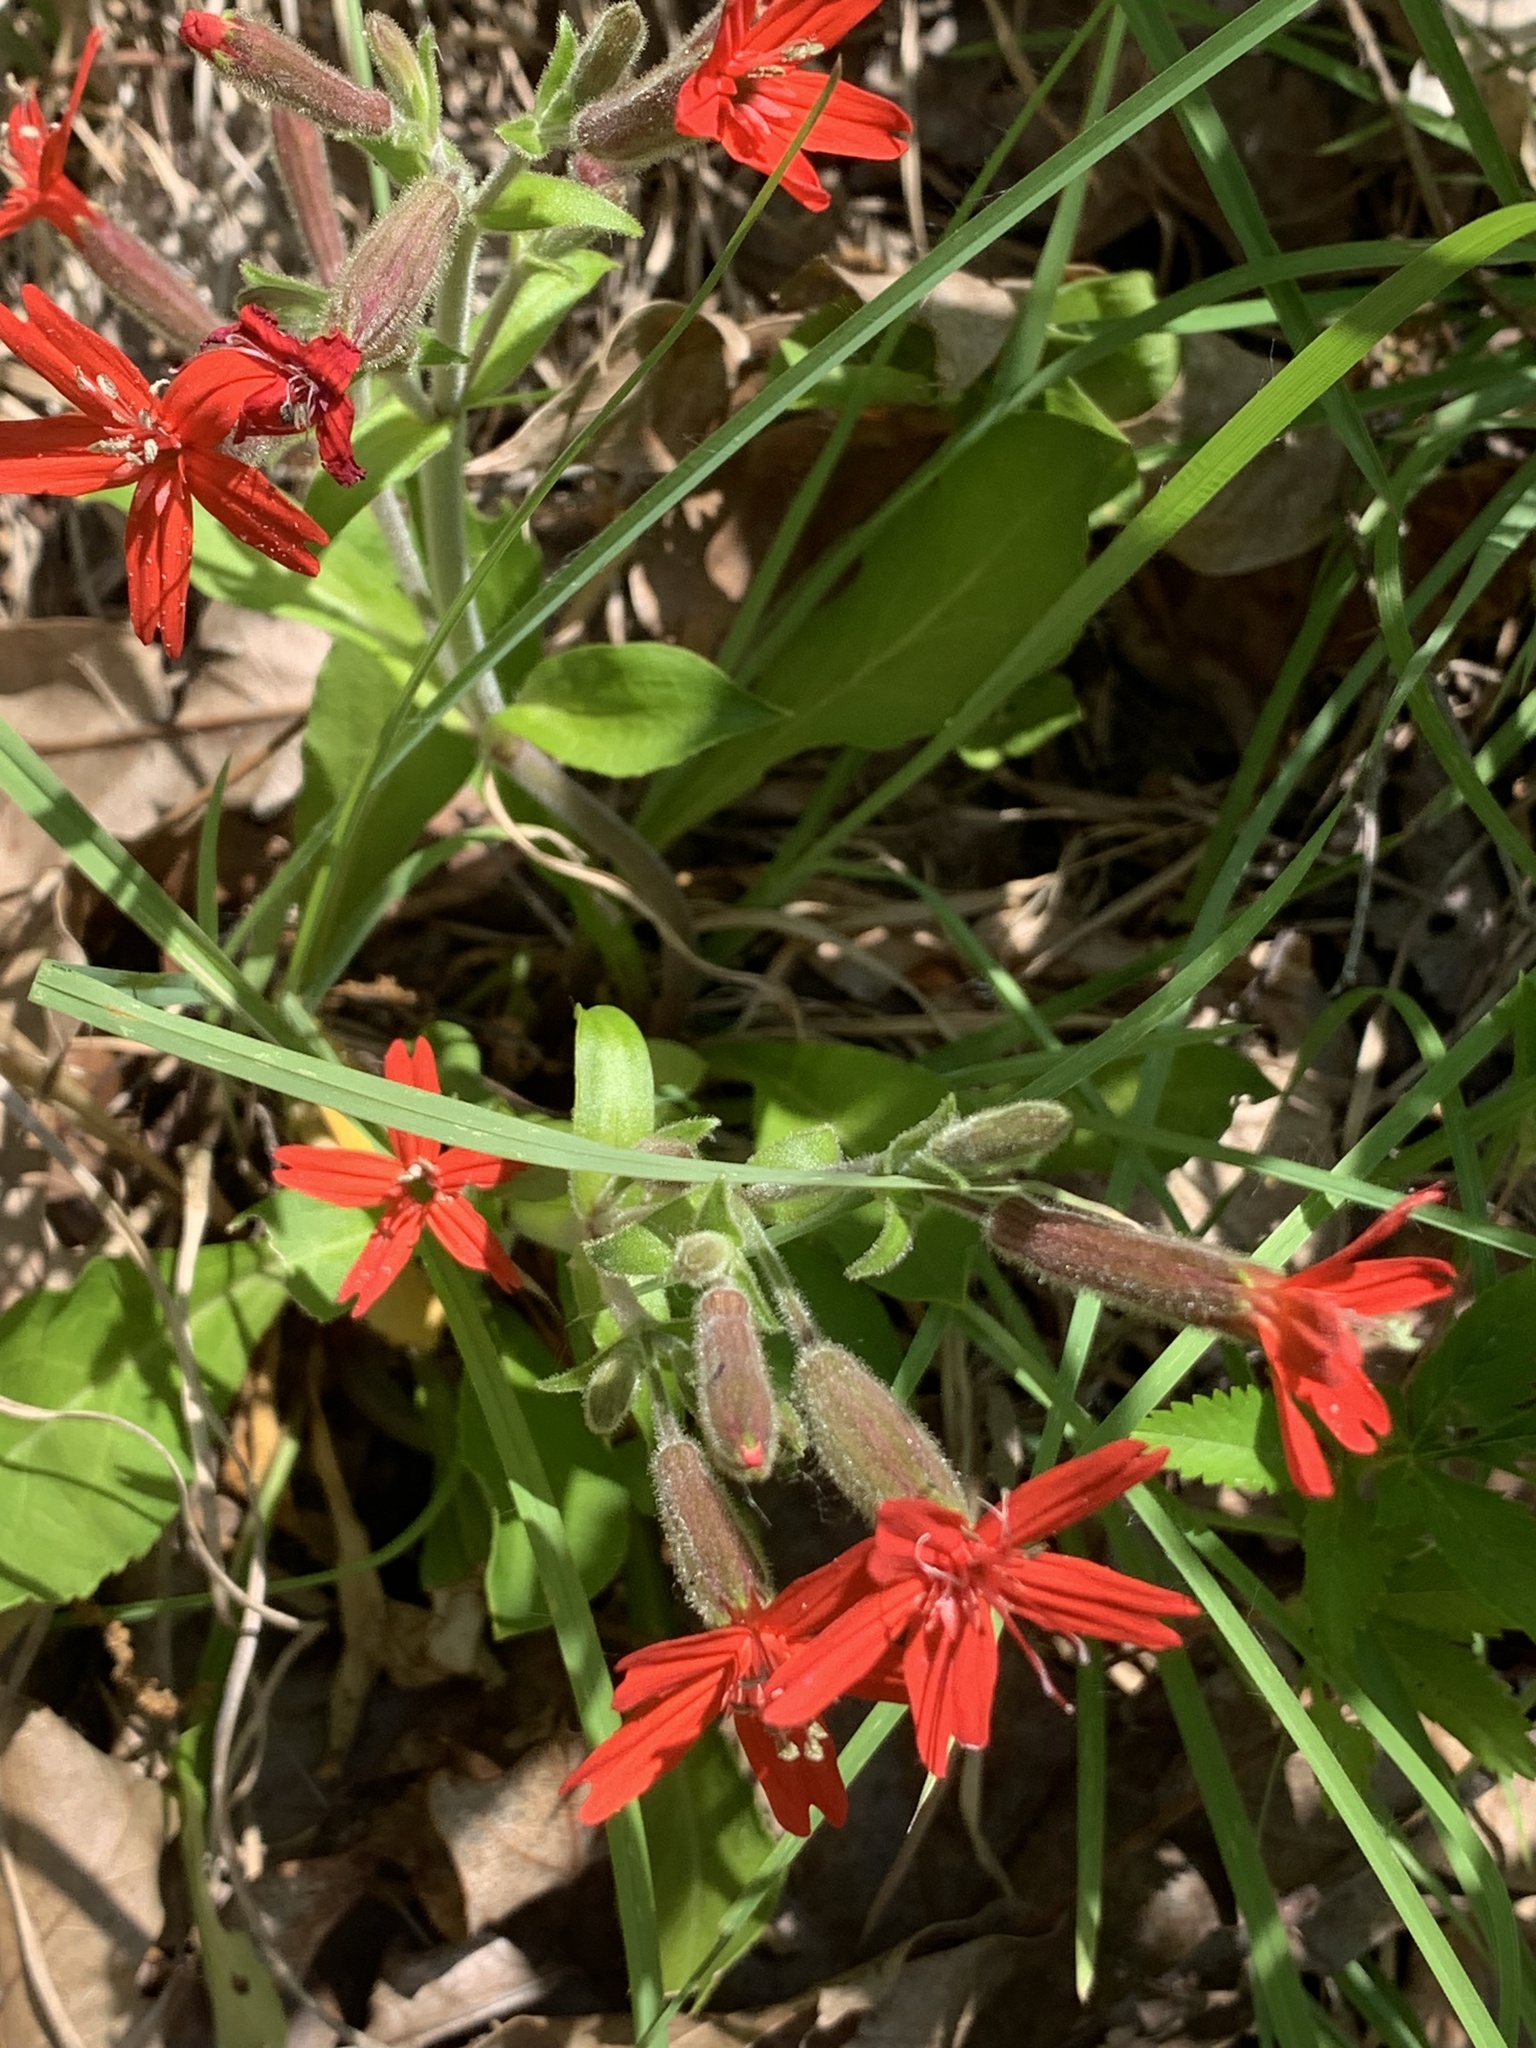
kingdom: Plantae
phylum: Tracheophyta
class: Magnoliopsida
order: Caryophyllales
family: Caryophyllaceae
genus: Silene
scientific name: Silene virginica
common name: Fire-pink
